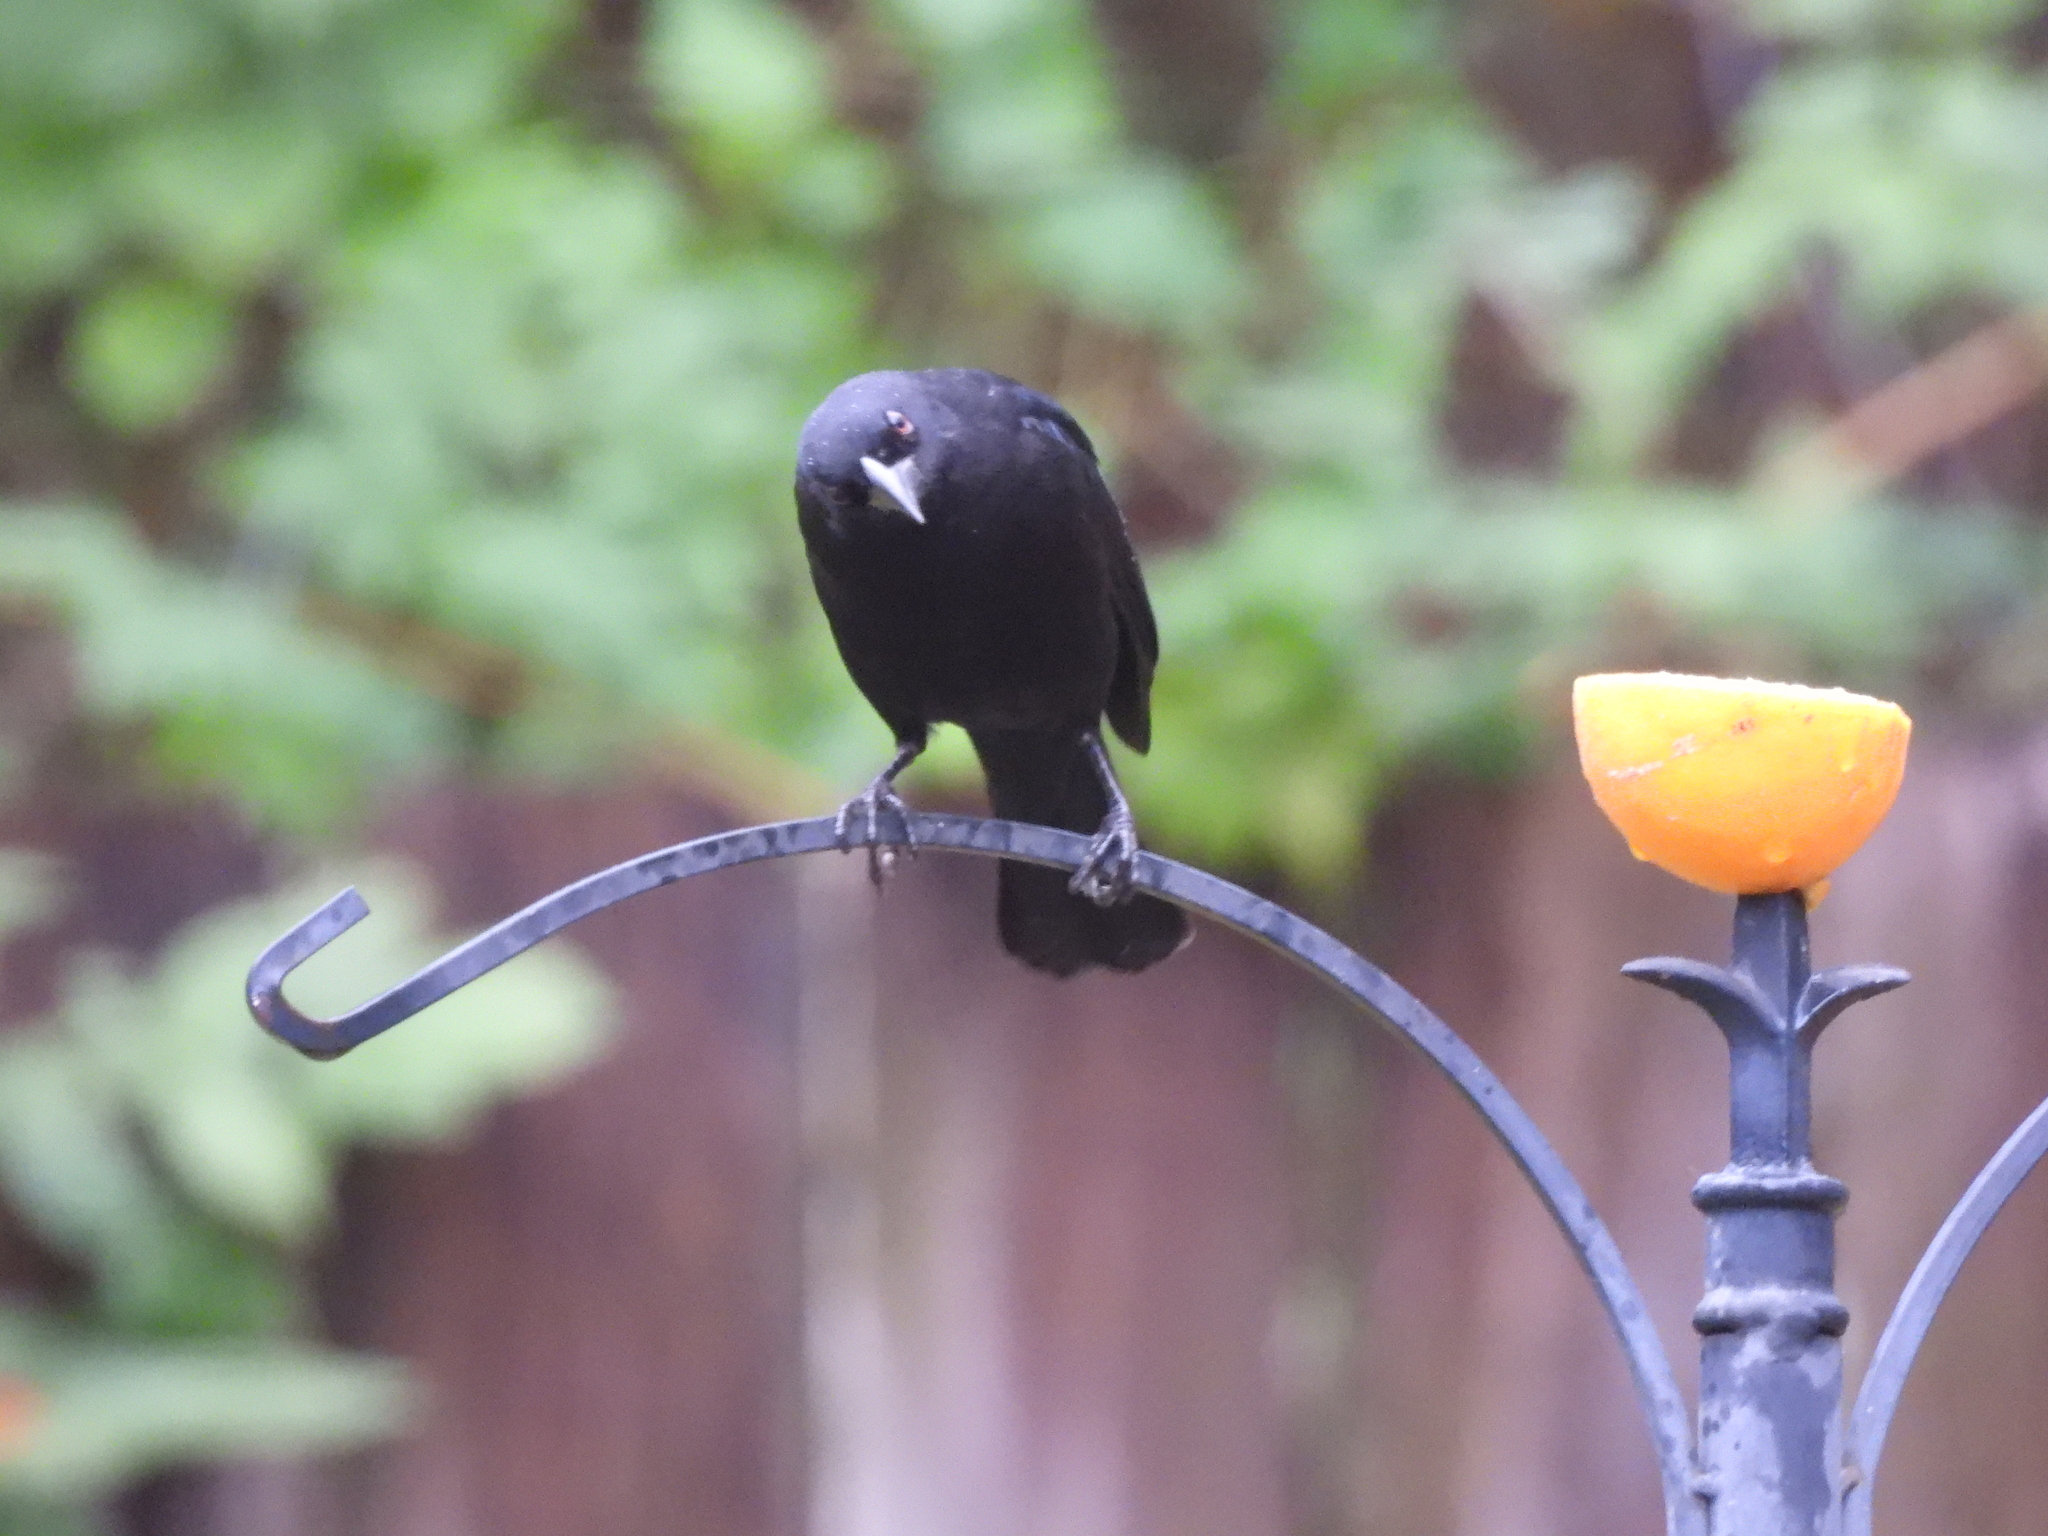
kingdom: Animalia
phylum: Chordata
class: Aves
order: Passeriformes
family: Icteridae
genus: Molothrus
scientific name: Molothrus aeneus
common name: Bronzed cowbird
